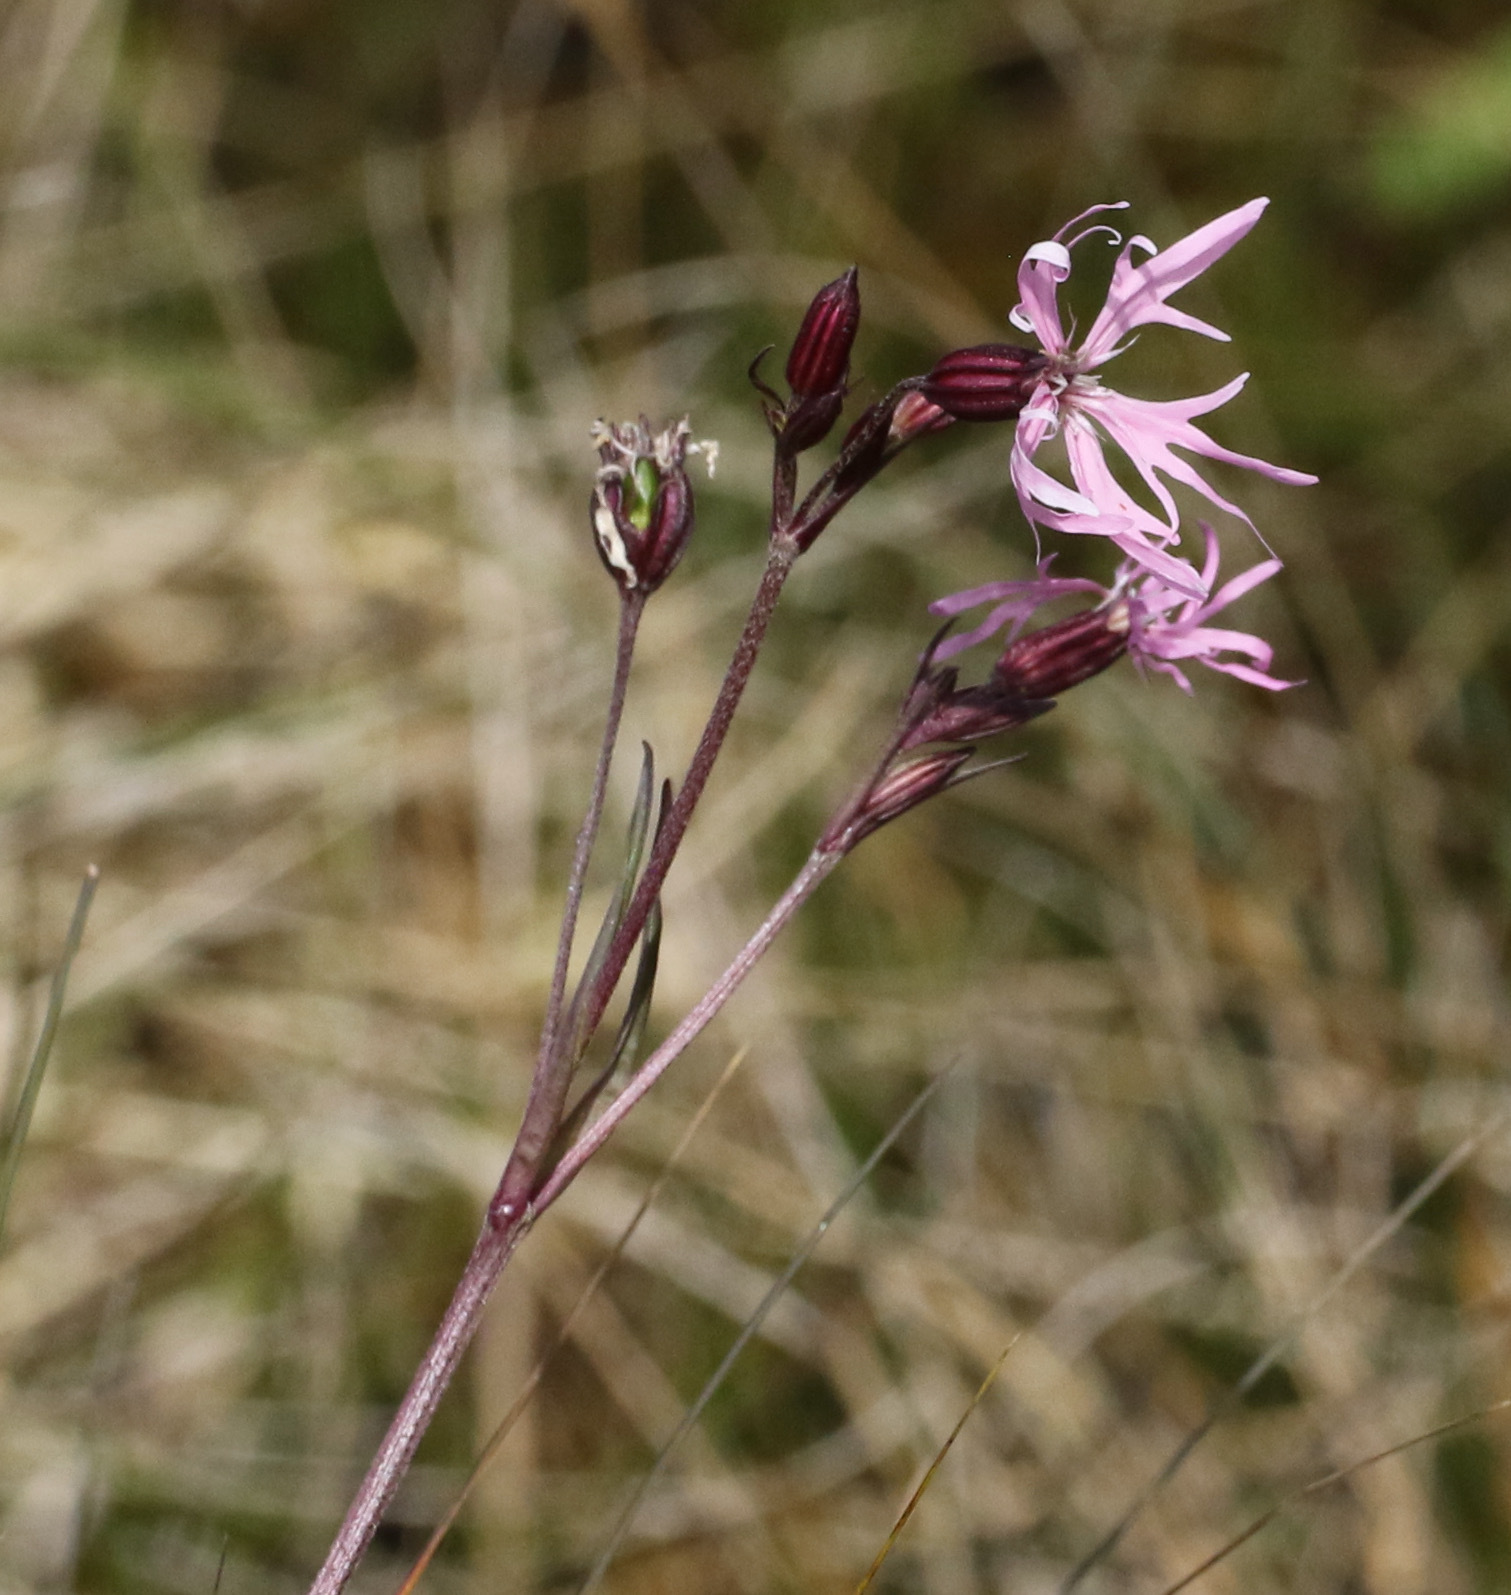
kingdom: Plantae
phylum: Tracheophyta
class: Magnoliopsida
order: Caryophyllales
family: Caryophyllaceae
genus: Silene
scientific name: Silene flos-cuculi
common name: Ragged-robin
